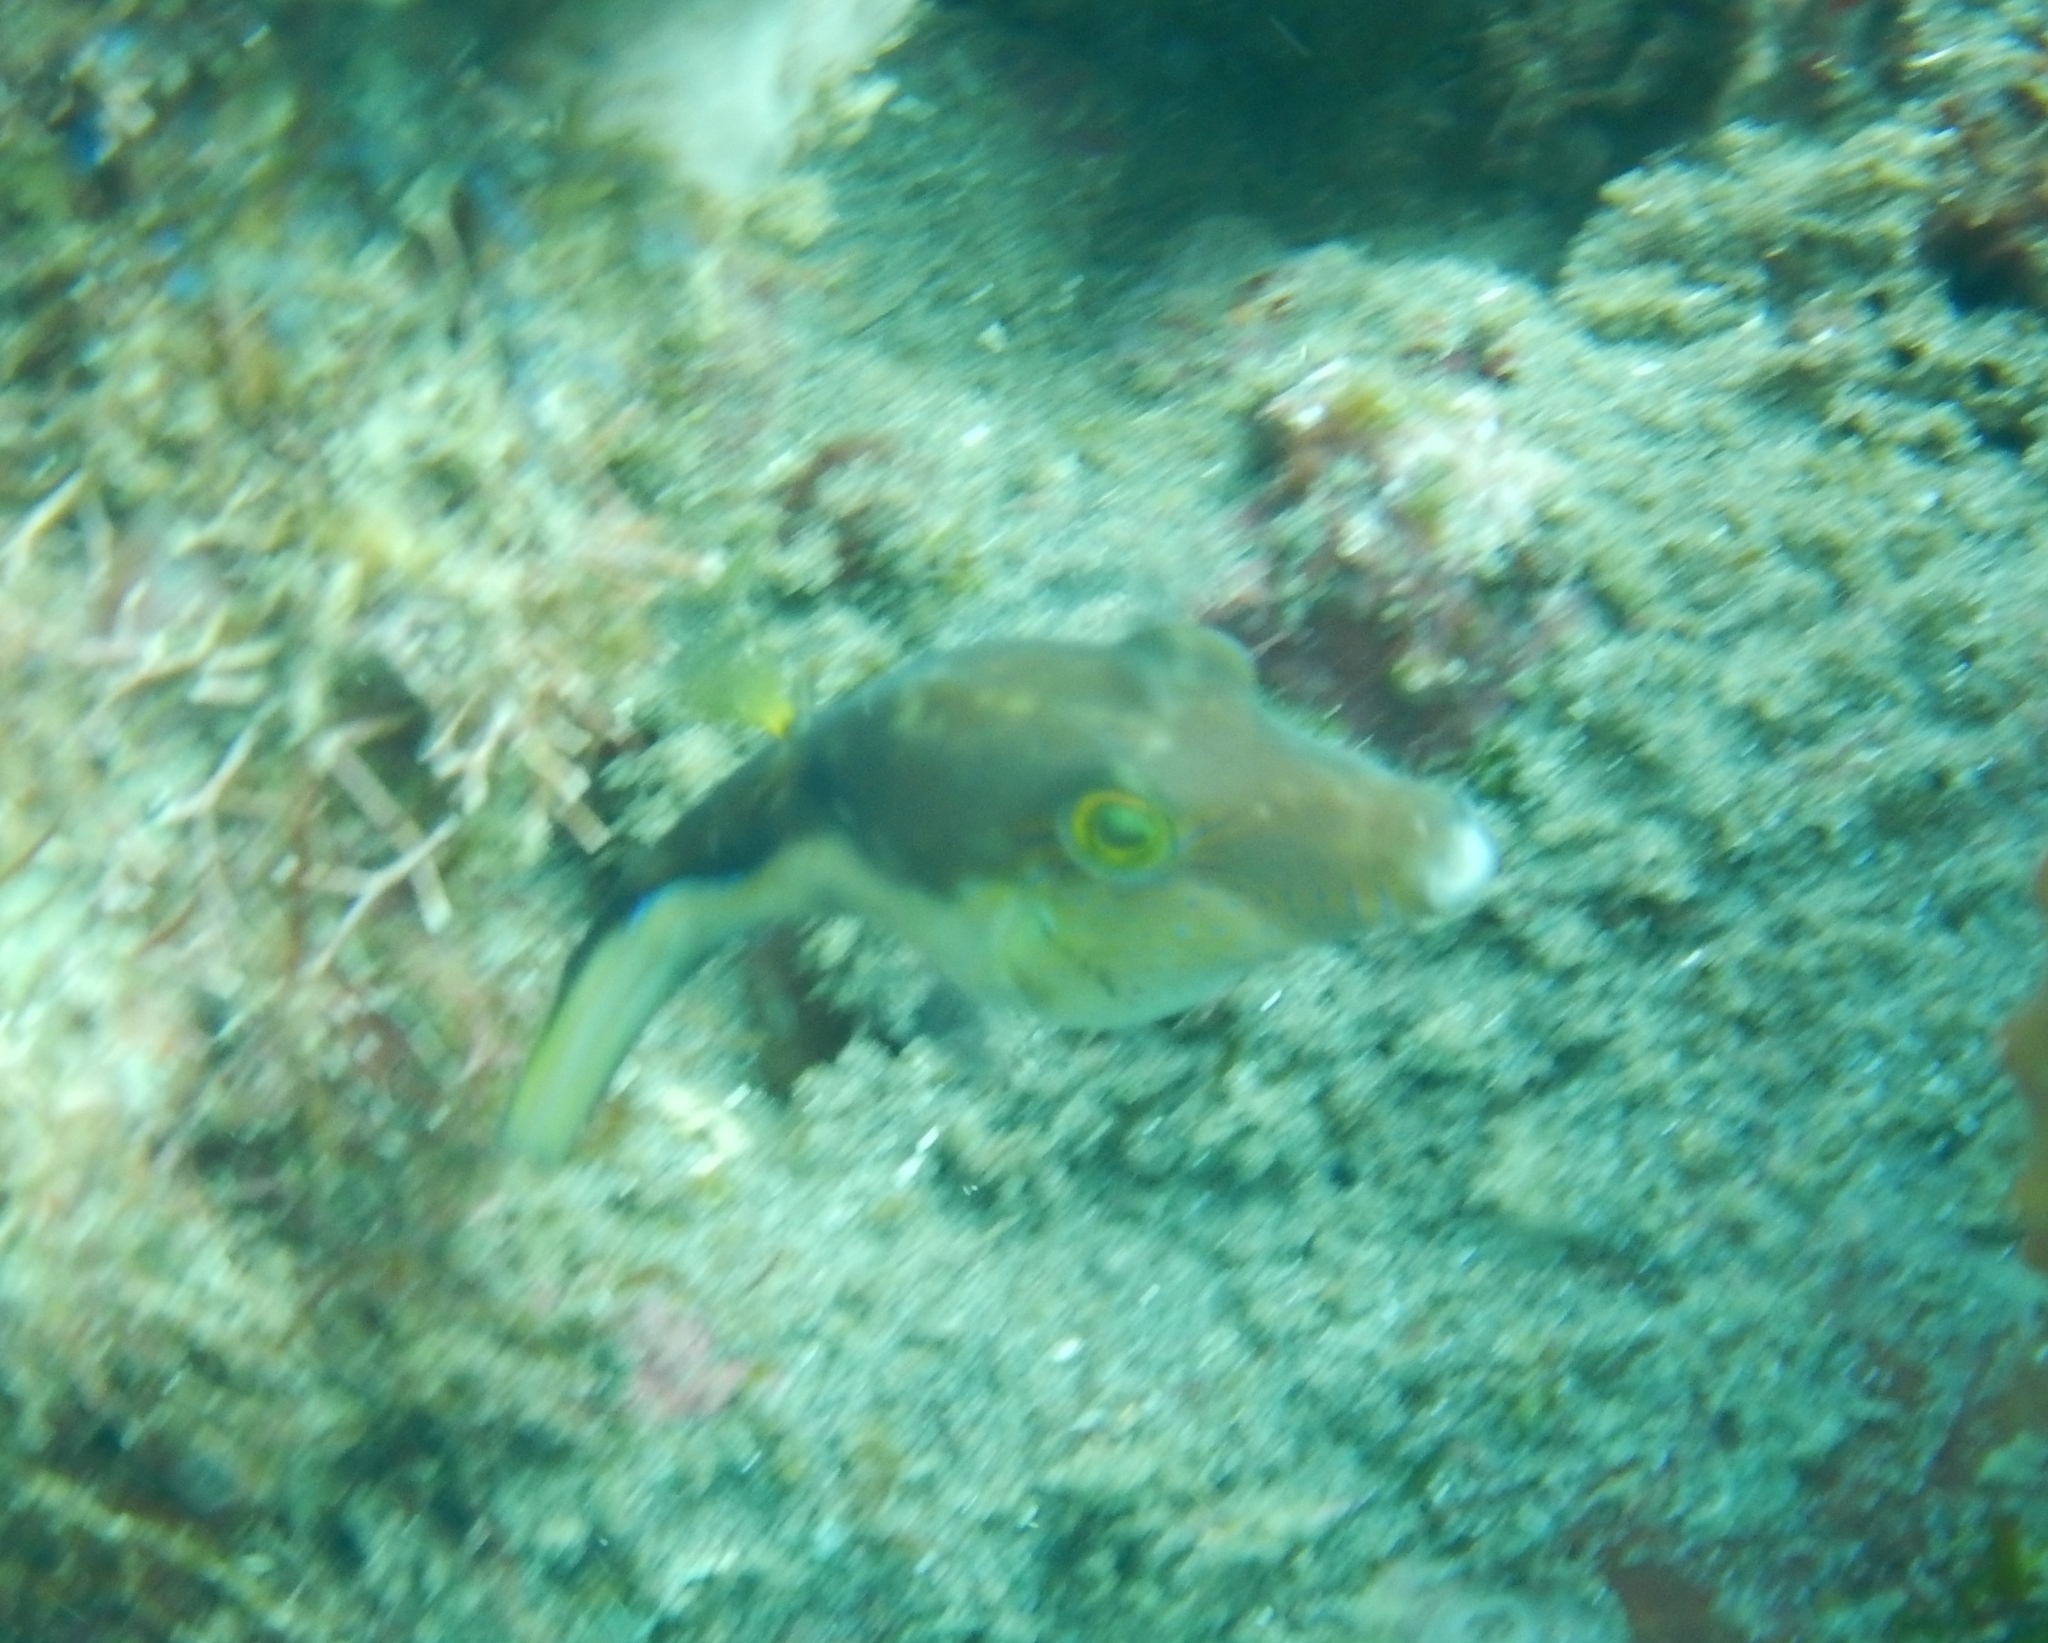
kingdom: Animalia
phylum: Chordata
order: Tetraodontiformes
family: Tetraodontidae
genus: Canthigaster
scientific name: Canthigaster rostrata
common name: Caribbean sharpnose-puffer
